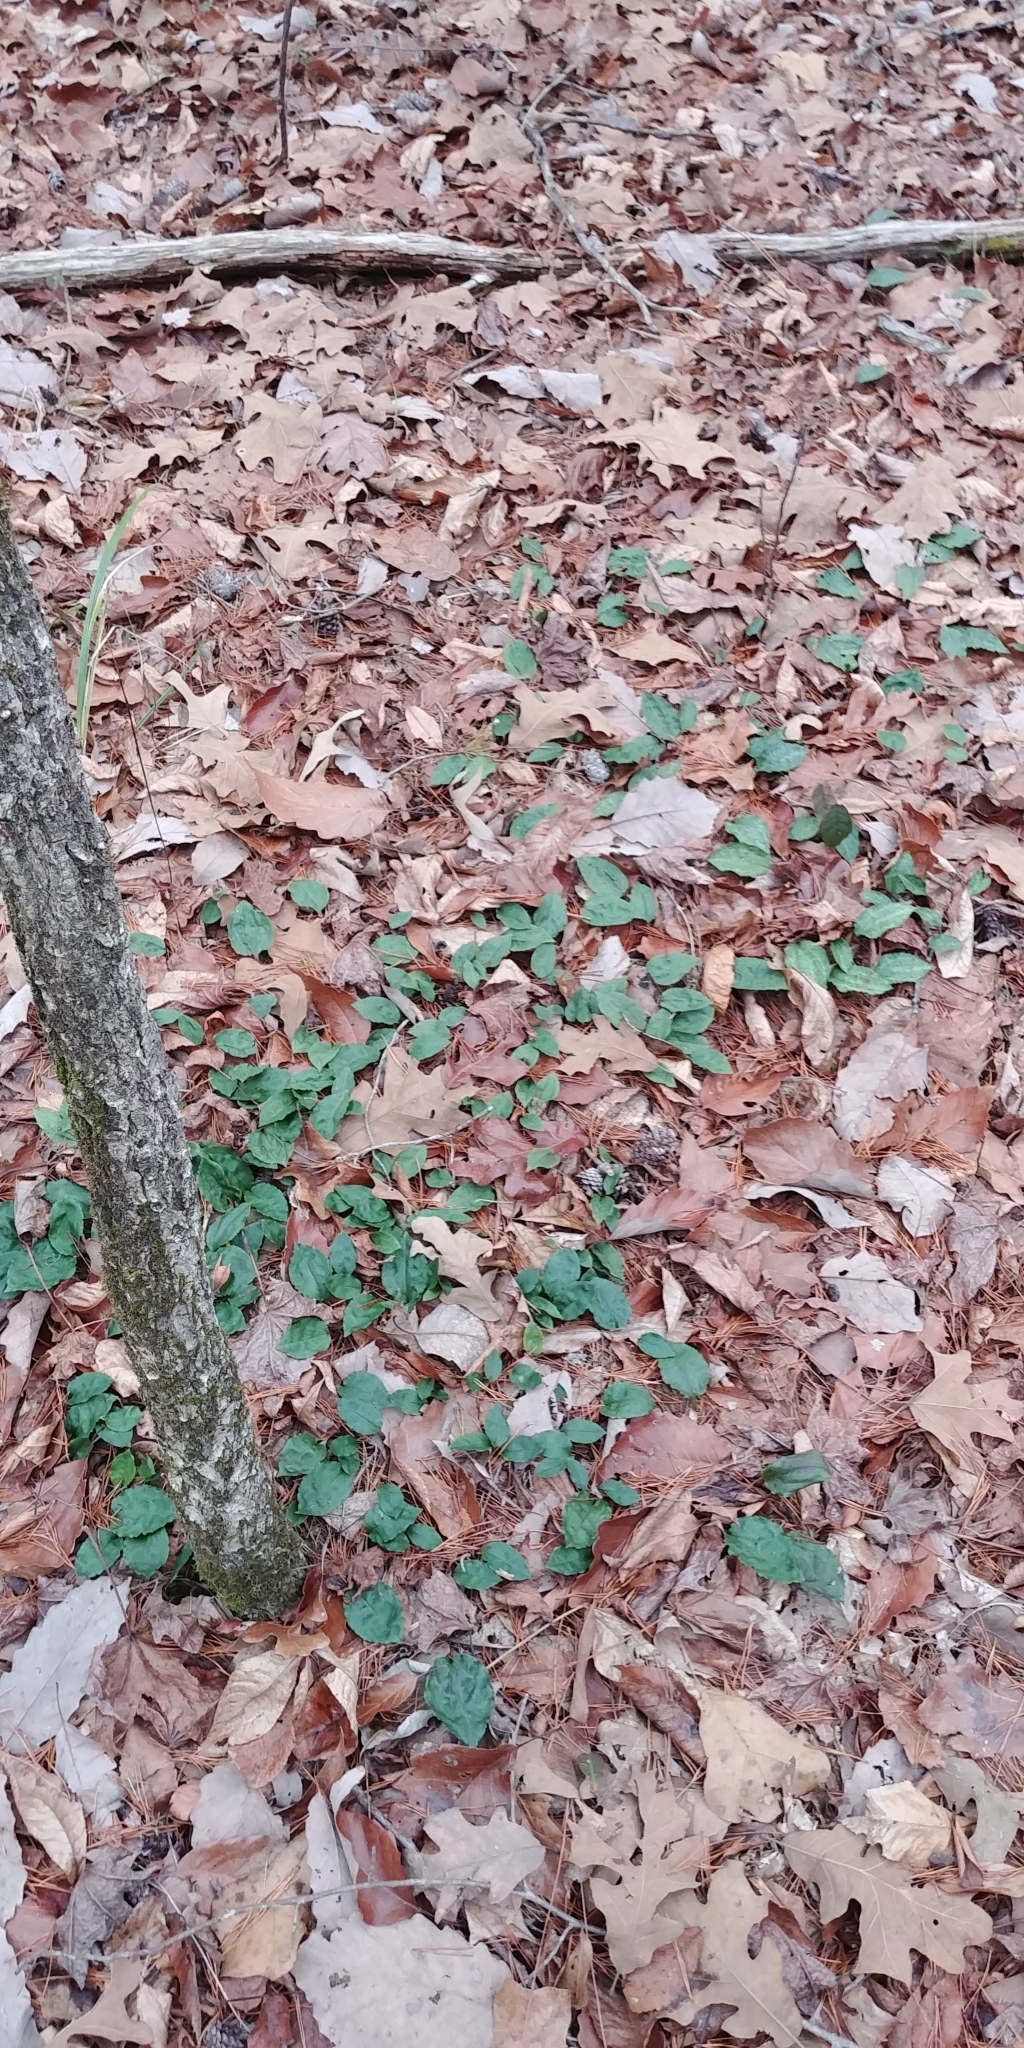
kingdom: Plantae
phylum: Tracheophyta
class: Liliopsida
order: Asparagales
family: Orchidaceae
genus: Tipularia
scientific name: Tipularia discolor
